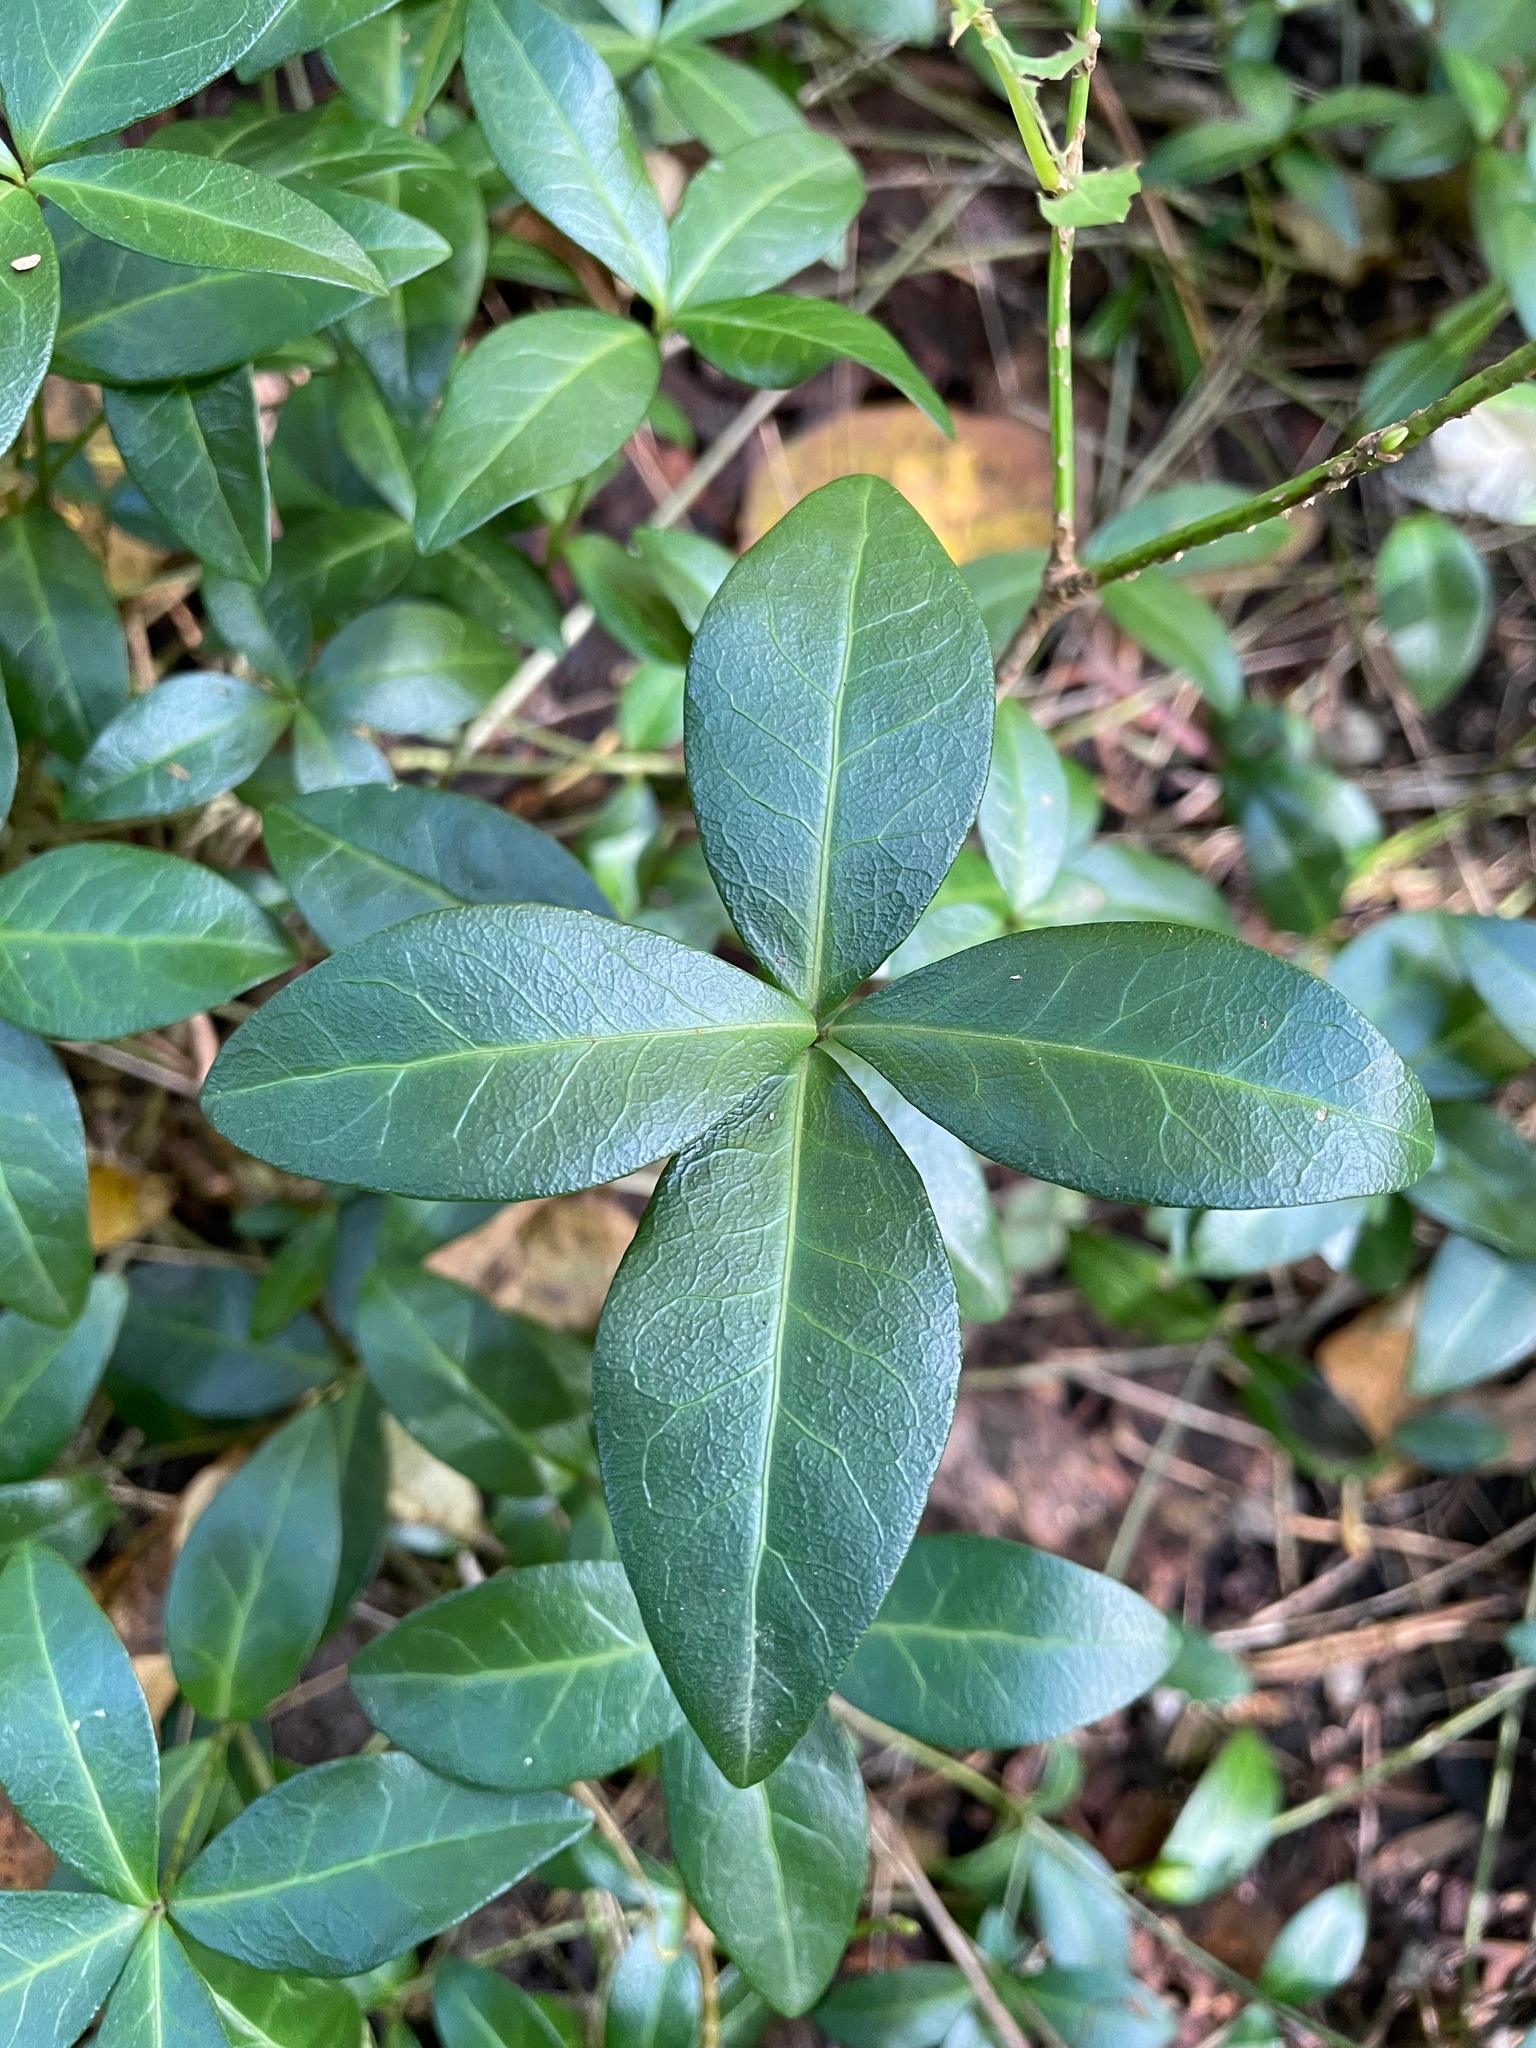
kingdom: Plantae
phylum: Tracheophyta
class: Magnoliopsida
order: Gentianales
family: Apocynaceae
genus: Vinca
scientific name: Vinca minor
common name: Lesser periwinkle
